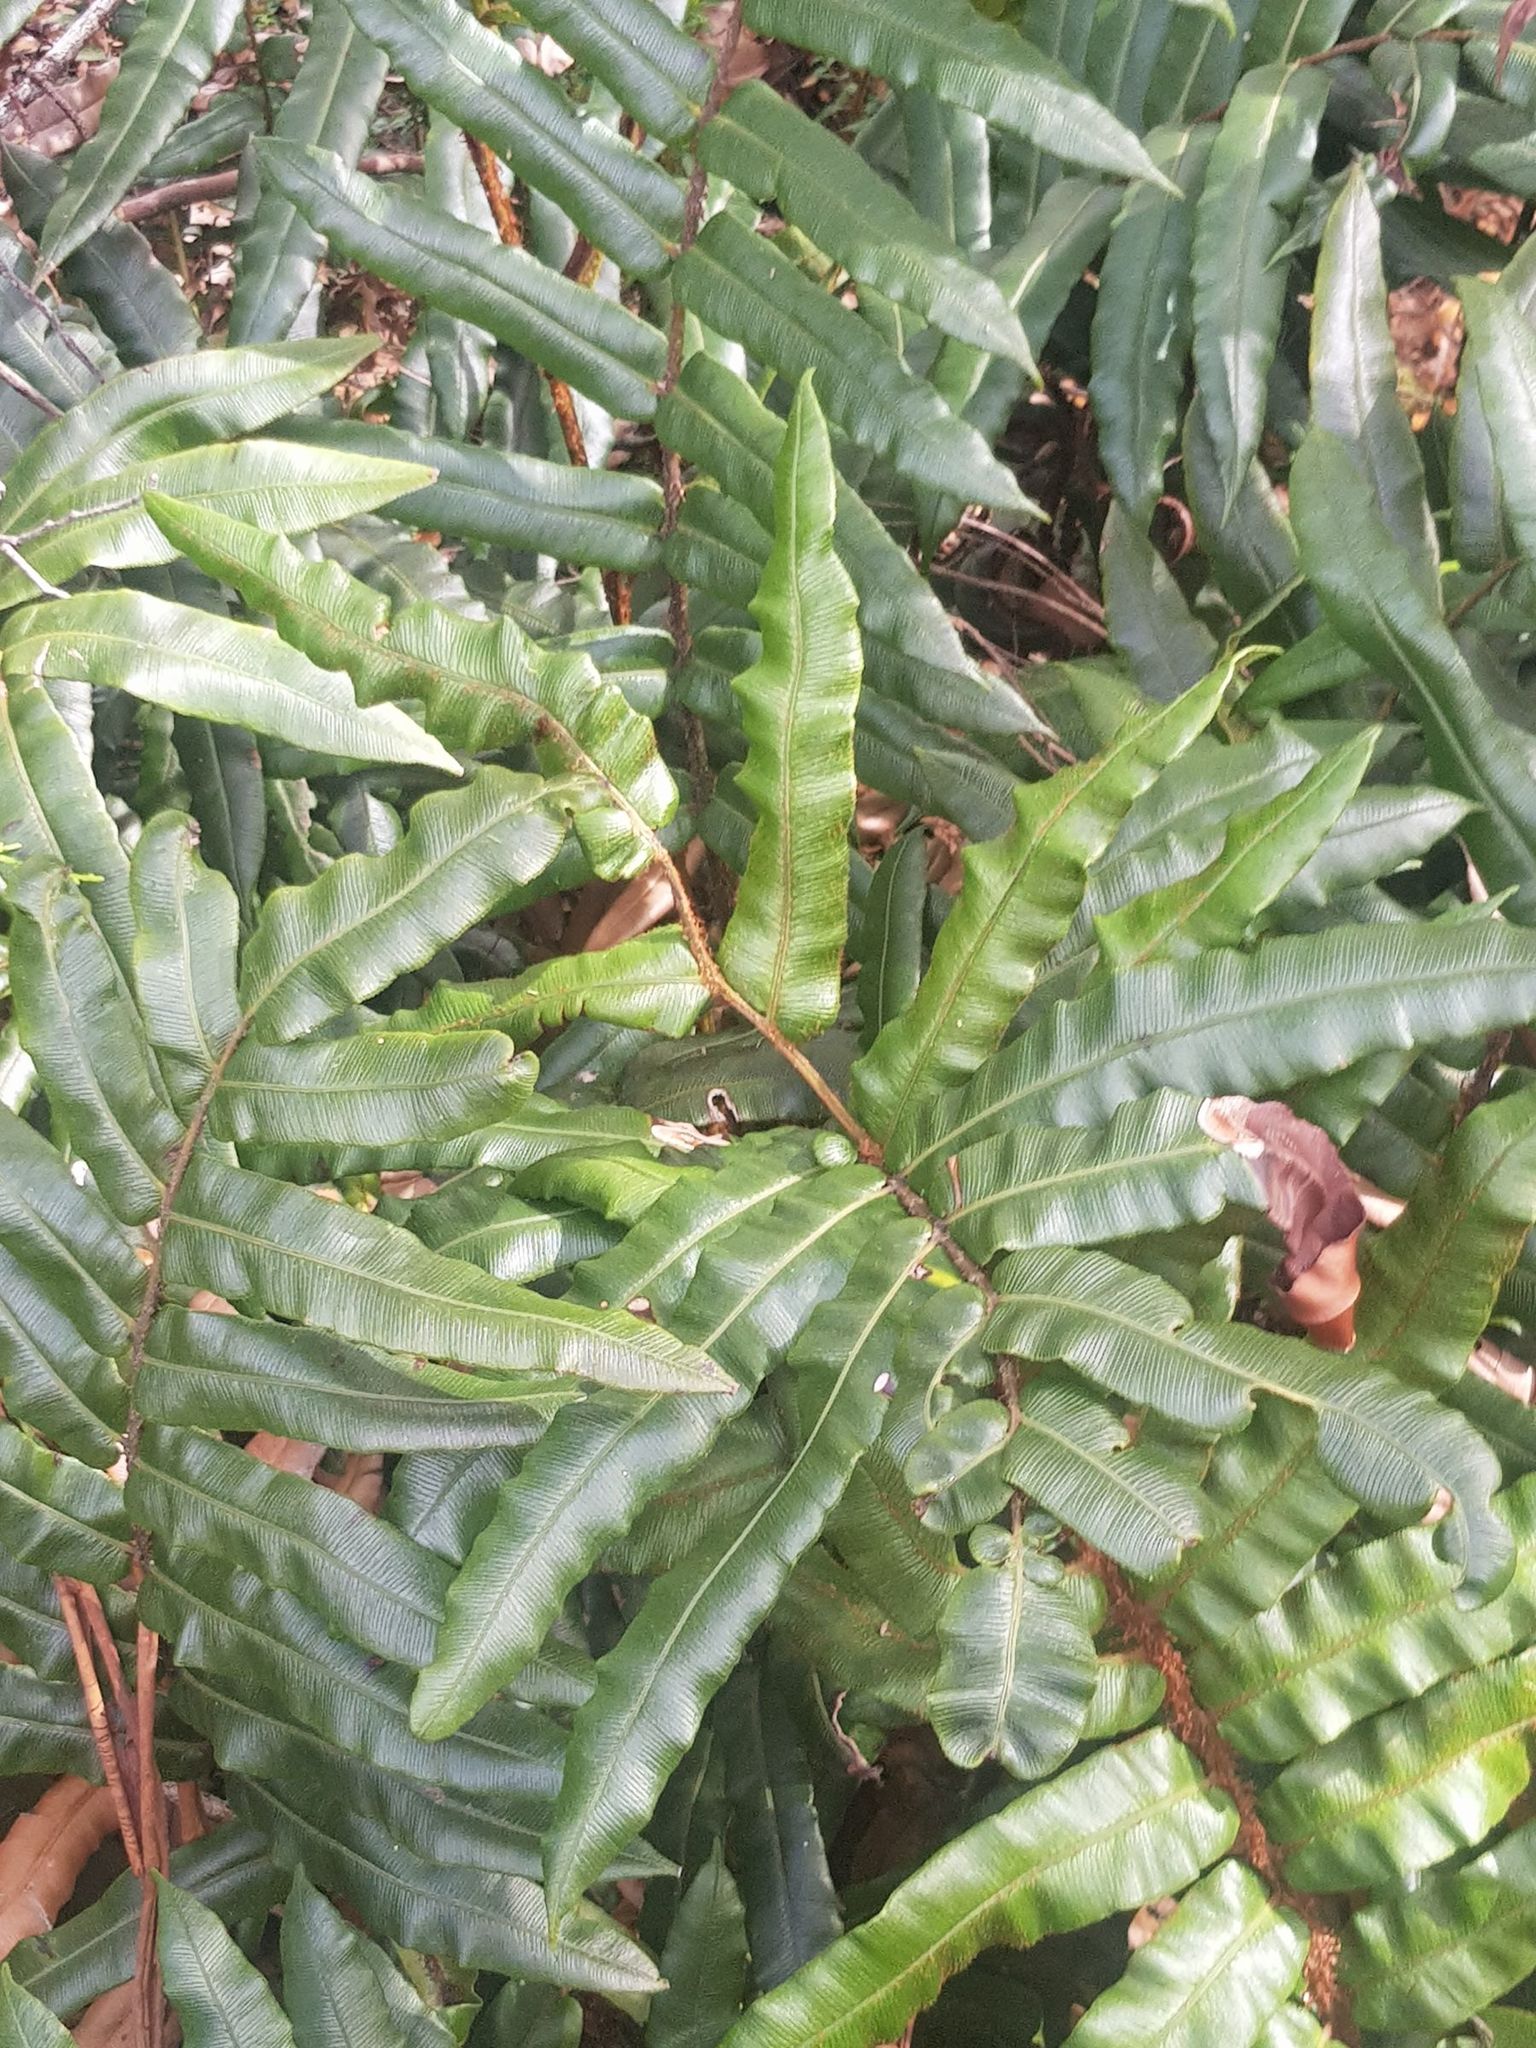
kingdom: Plantae
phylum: Tracheophyta
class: Polypodiopsida
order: Polypodiales
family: Blechnaceae
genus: Parablechnum
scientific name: Parablechnum wattsii
